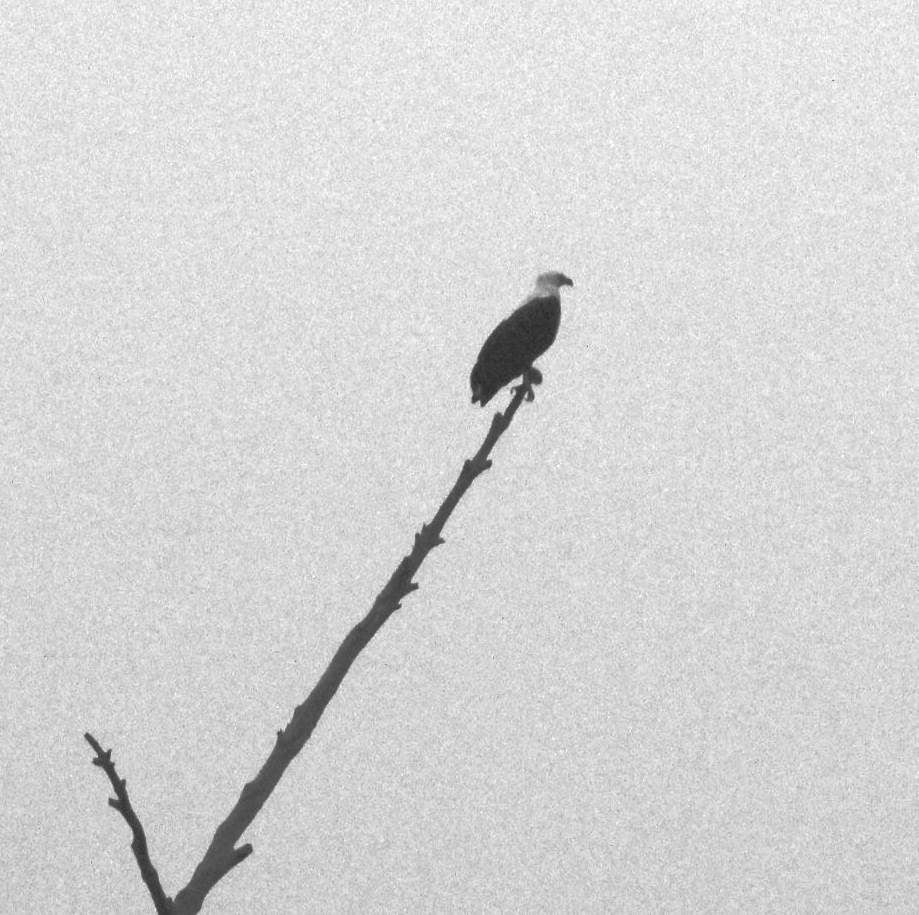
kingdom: Animalia
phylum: Chordata
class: Aves
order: Accipitriformes
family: Accipitridae
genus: Haliaeetus
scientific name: Haliaeetus vocifer
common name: African fish eagle
